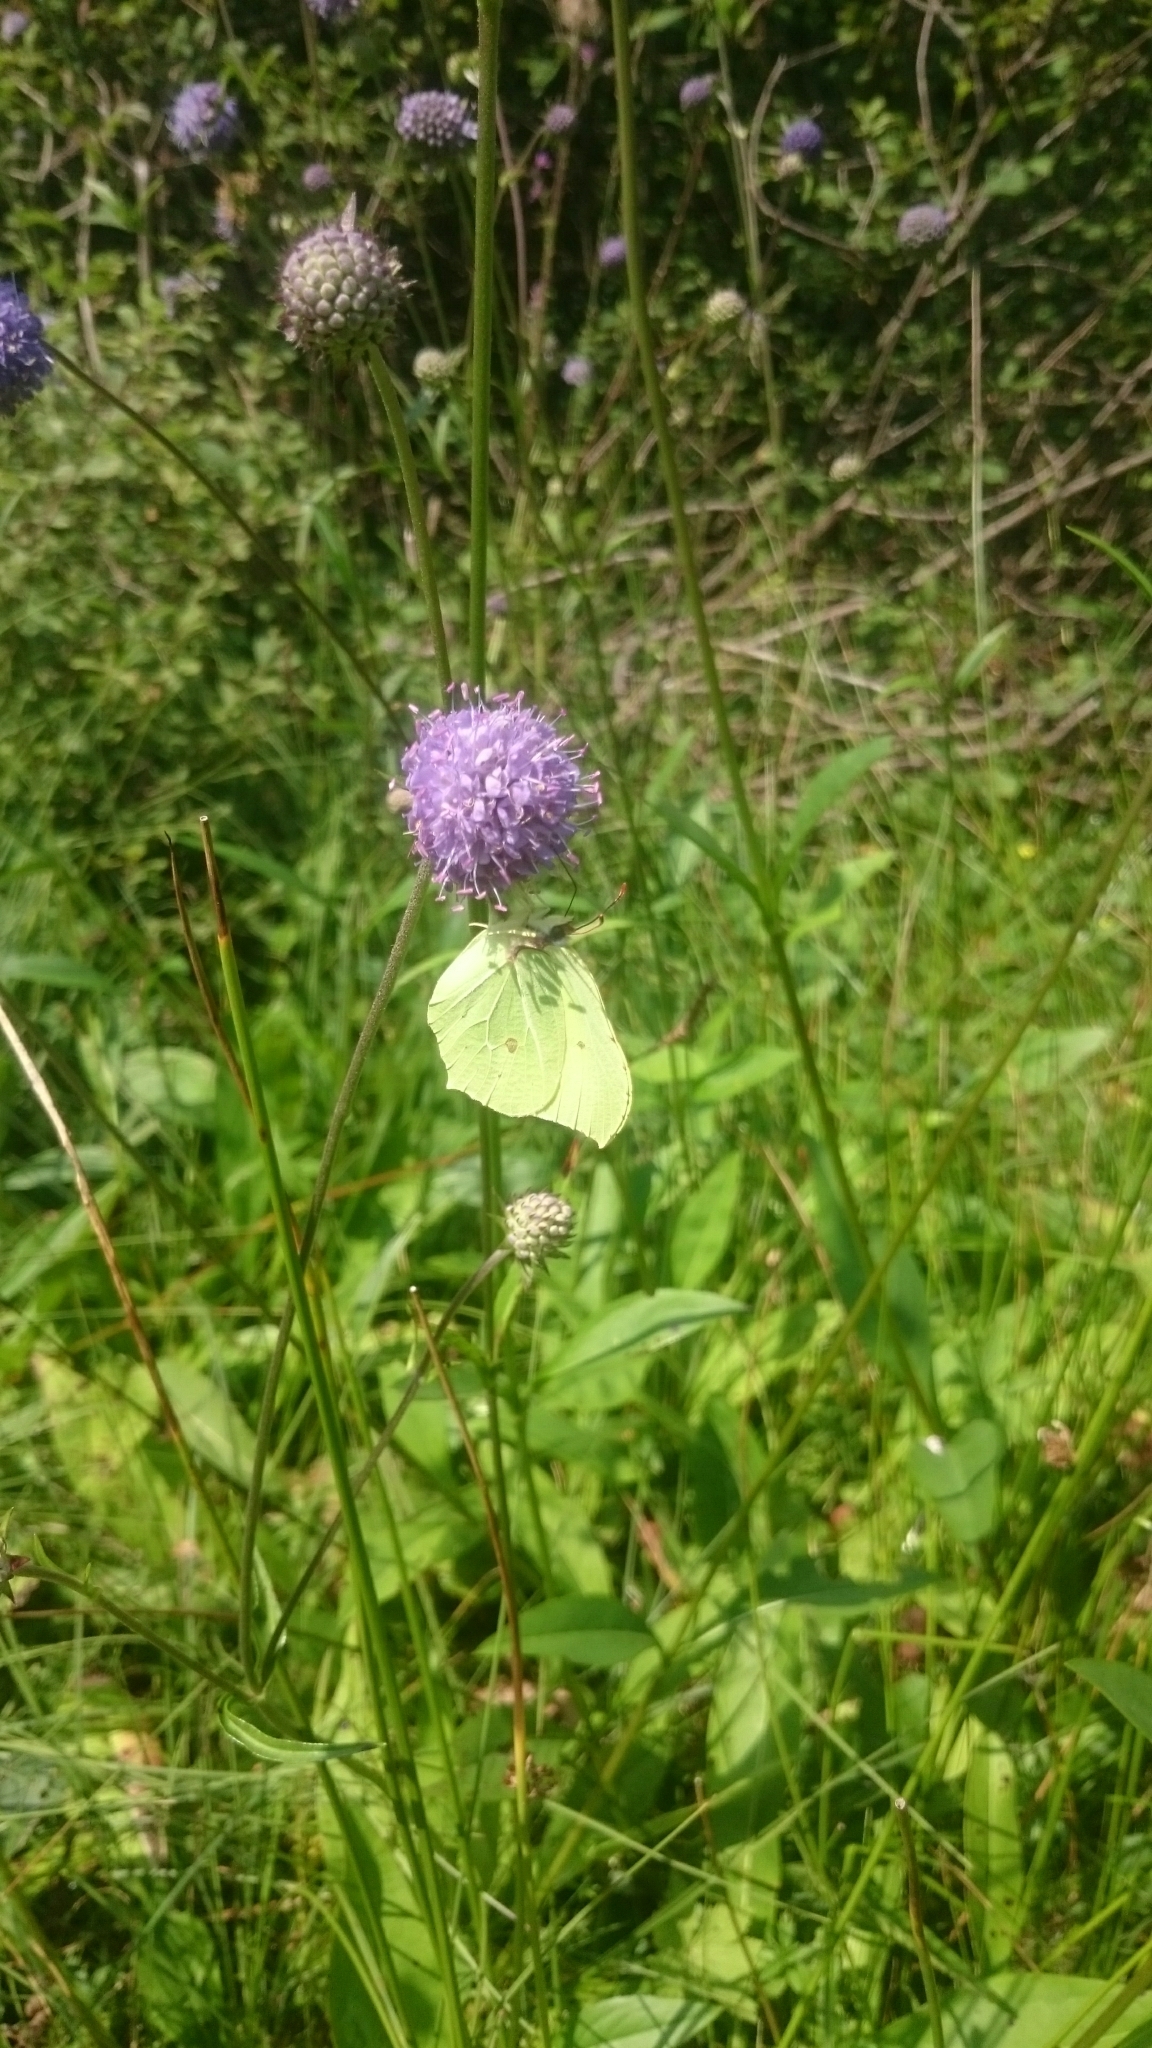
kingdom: Animalia
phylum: Arthropoda
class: Insecta
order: Lepidoptera
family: Pieridae
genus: Gonepteryx
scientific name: Gonepteryx rhamni
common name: Brimstone
